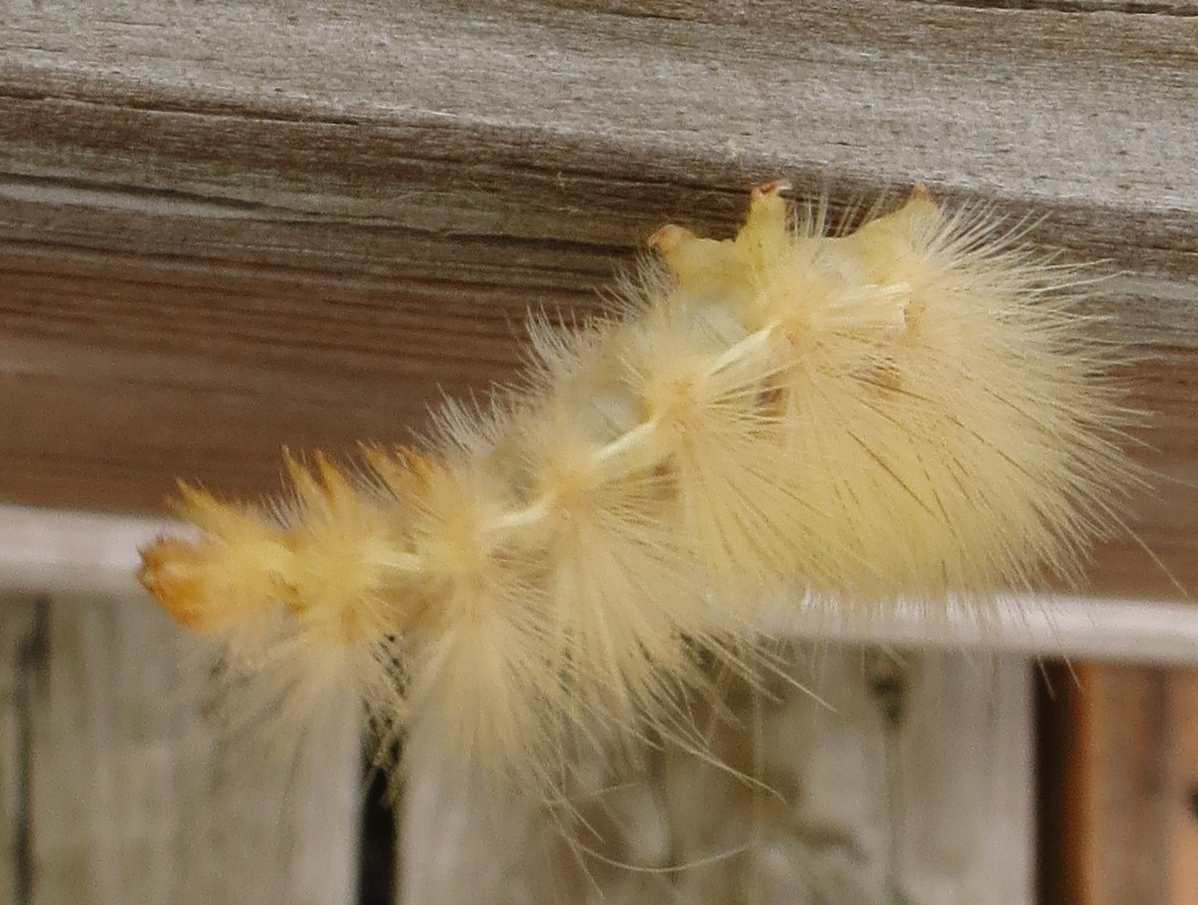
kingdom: Animalia
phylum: Arthropoda
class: Insecta
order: Lepidoptera
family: Erebidae
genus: Spilosoma
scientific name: Spilosoma virginica
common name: Virginia tiger moth
